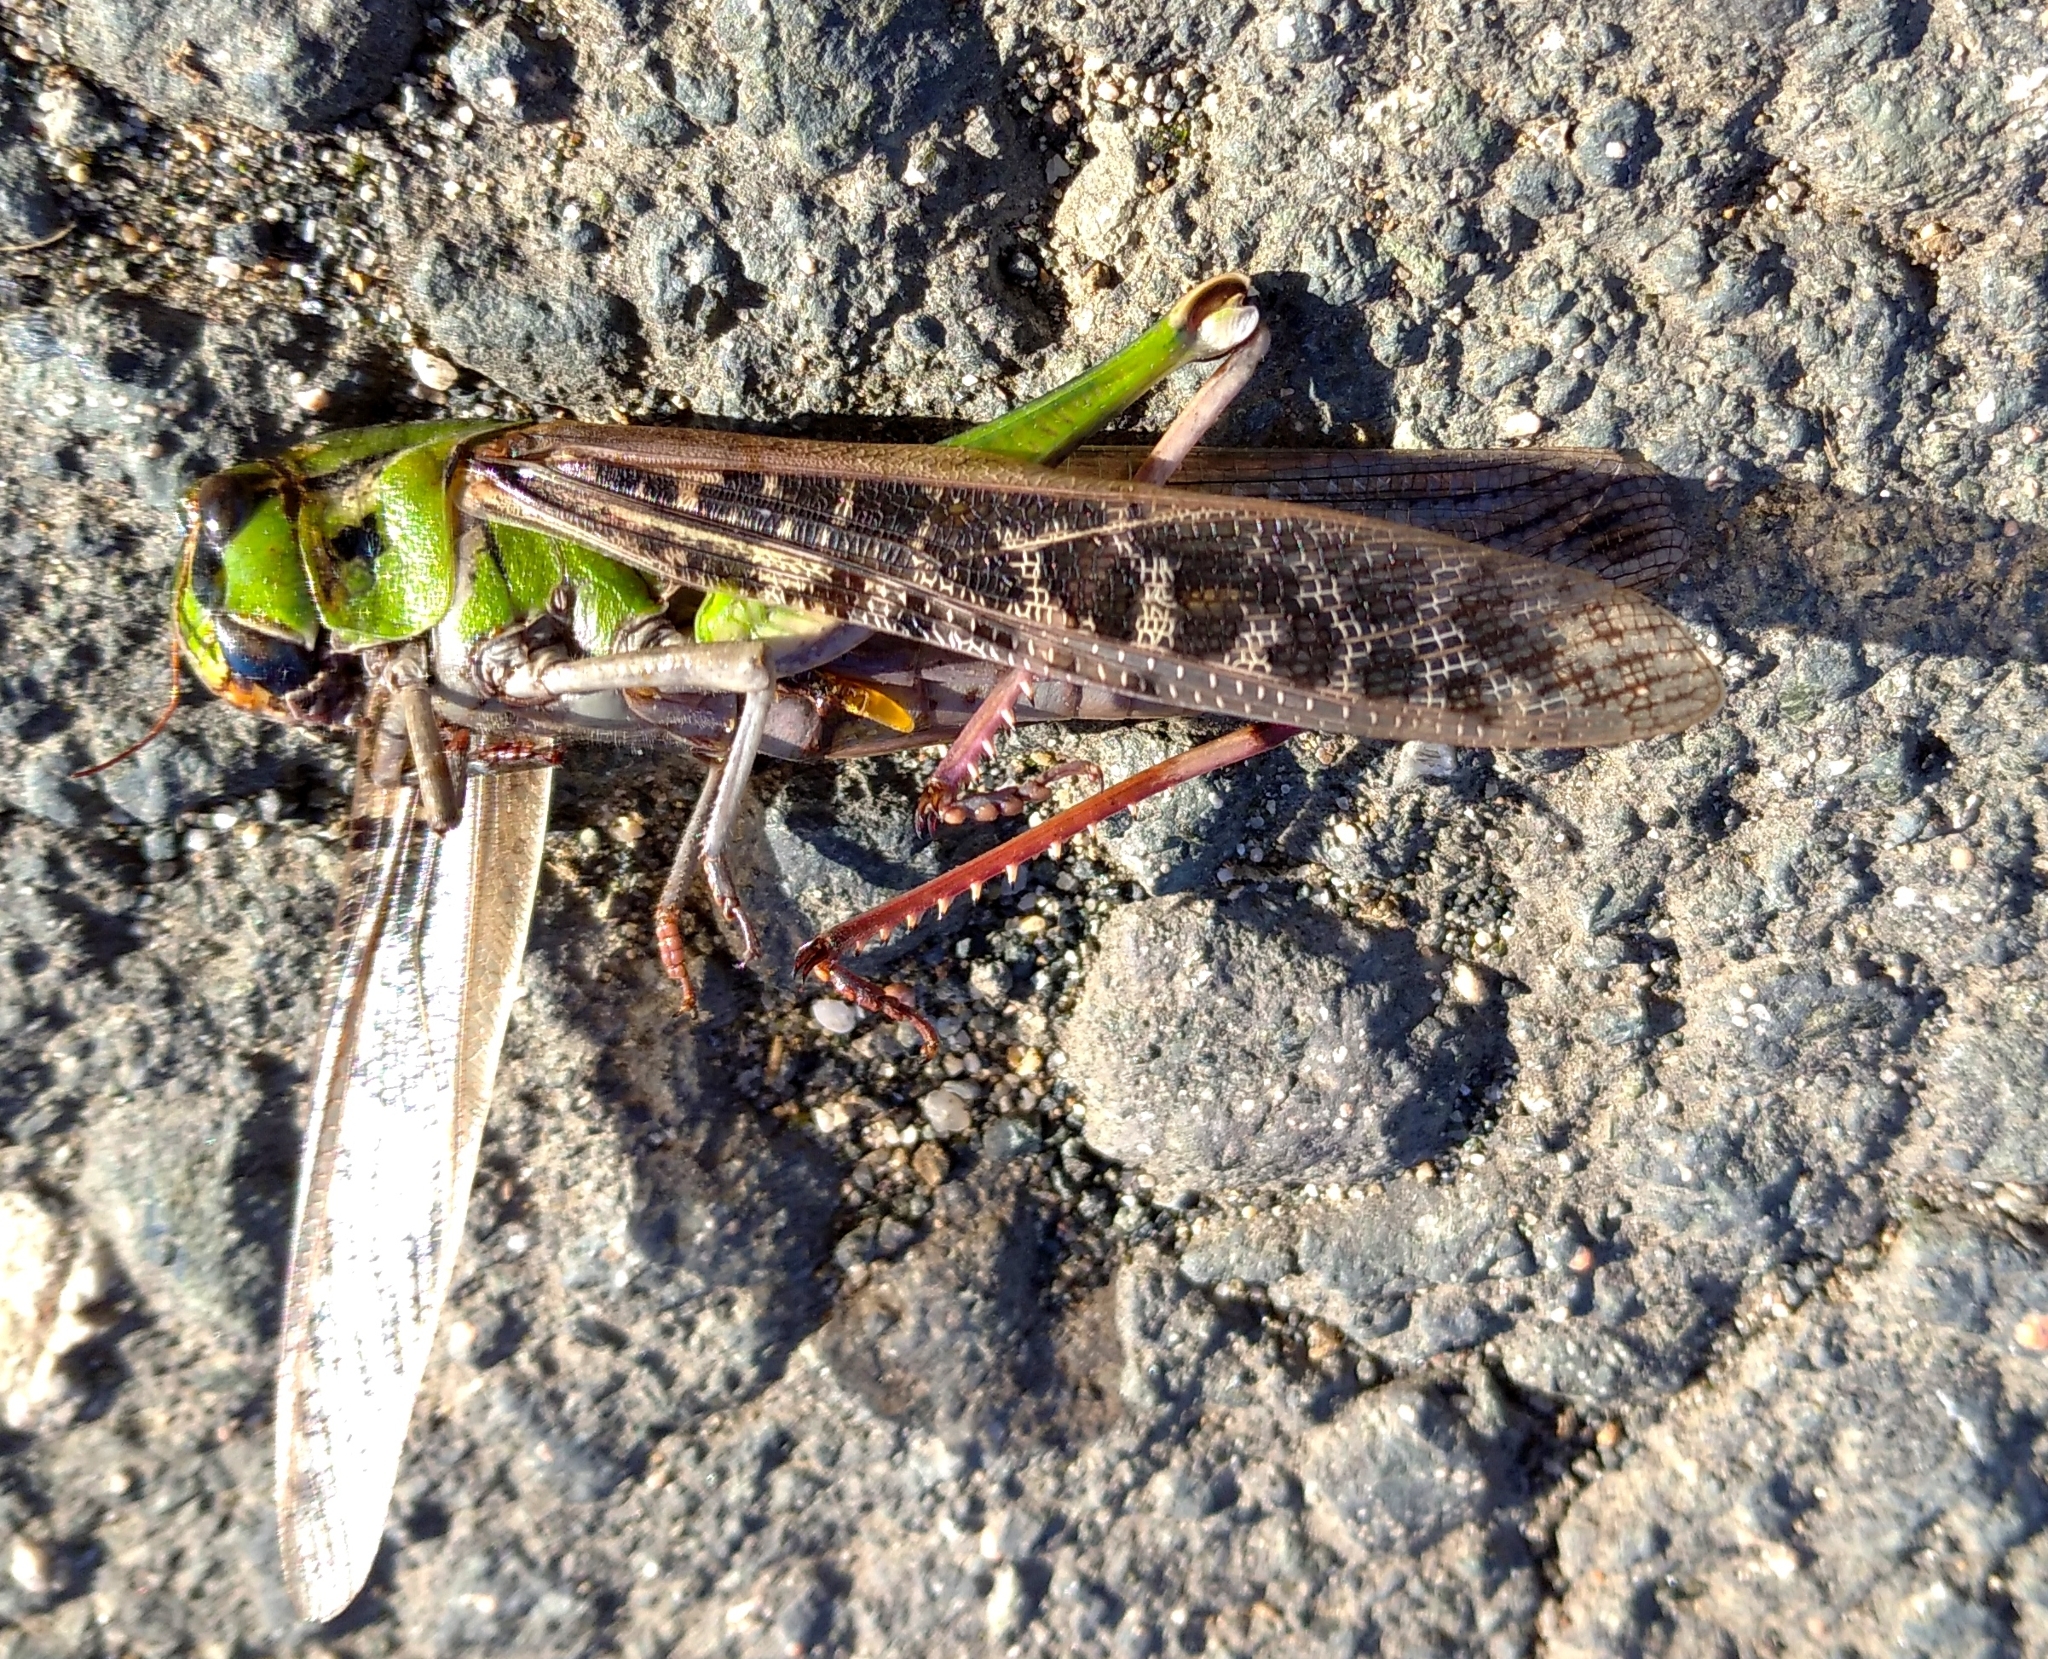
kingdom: Animalia
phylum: Arthropoda
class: Insecta
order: Orthoptera
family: Acrididae
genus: Locusta
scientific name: Locusta migratoria
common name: Migratory locust
